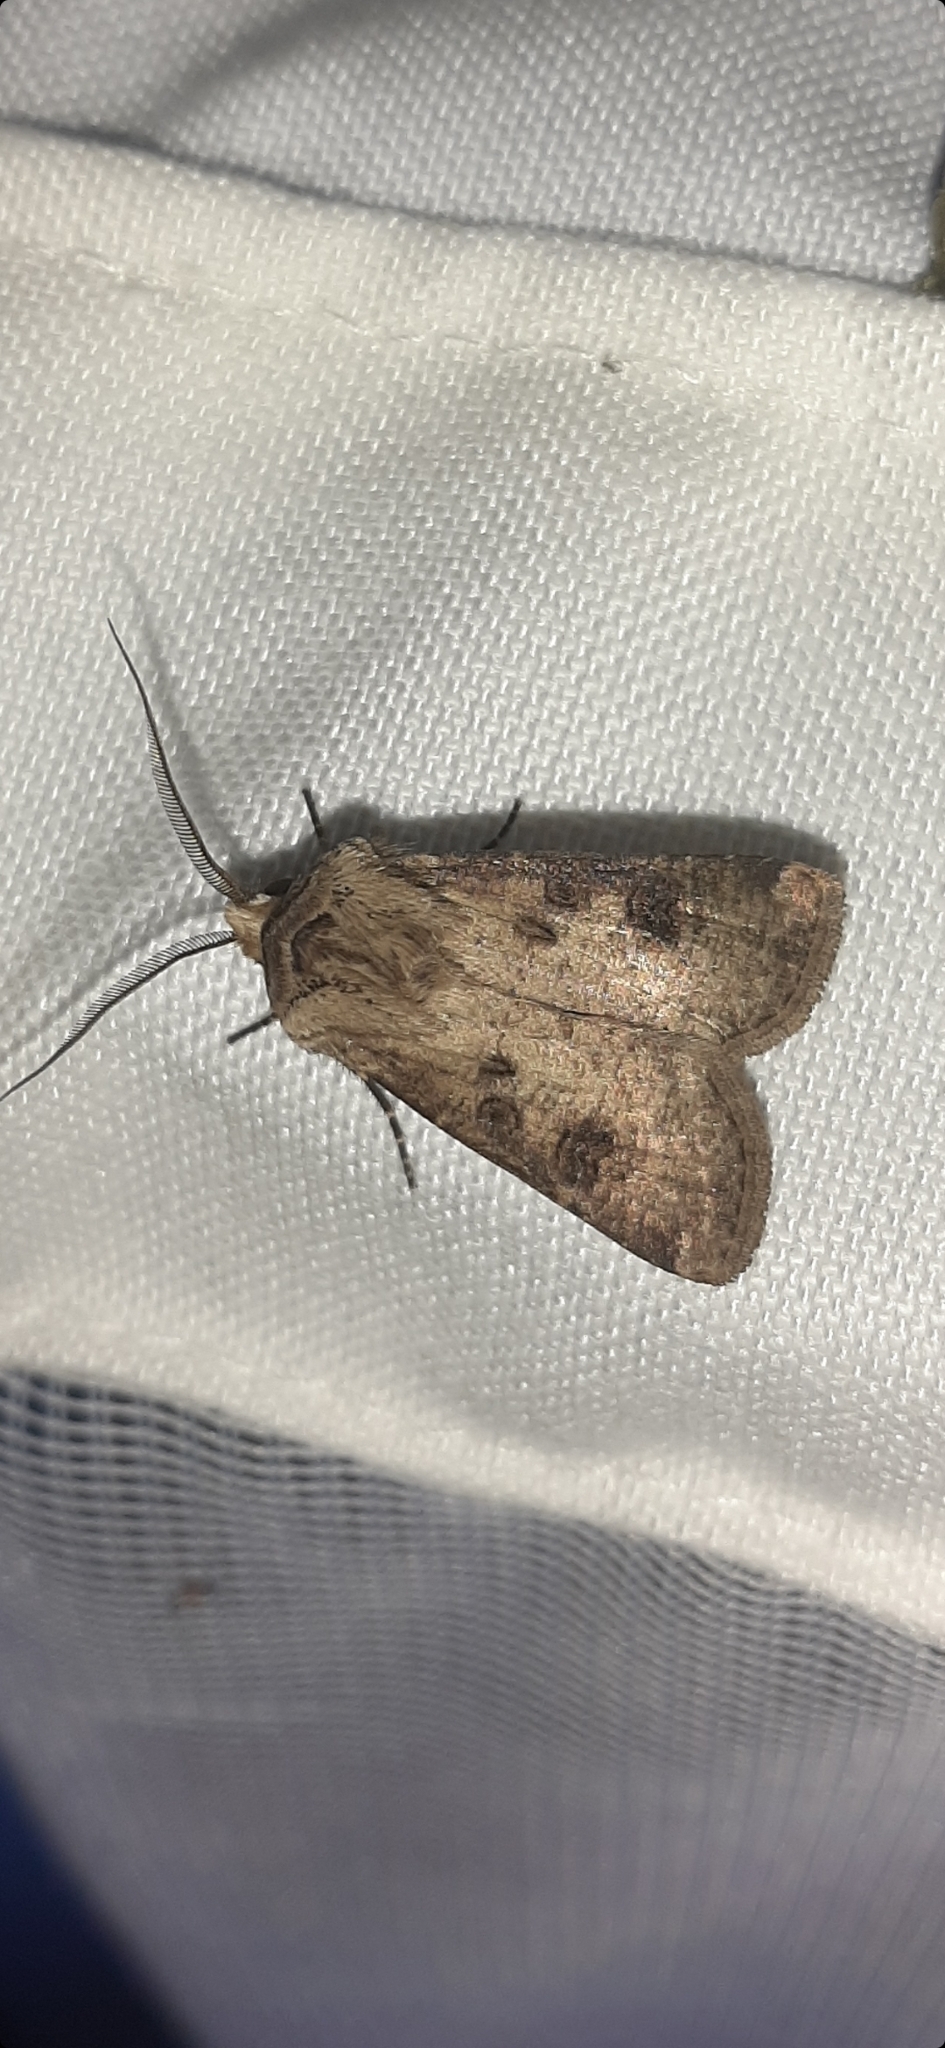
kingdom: Animalia
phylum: Arthropoda
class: Insecta
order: Lepidoptera
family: Noctuidae
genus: Agrotis
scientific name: Agrotis clavis
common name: Heart and club
